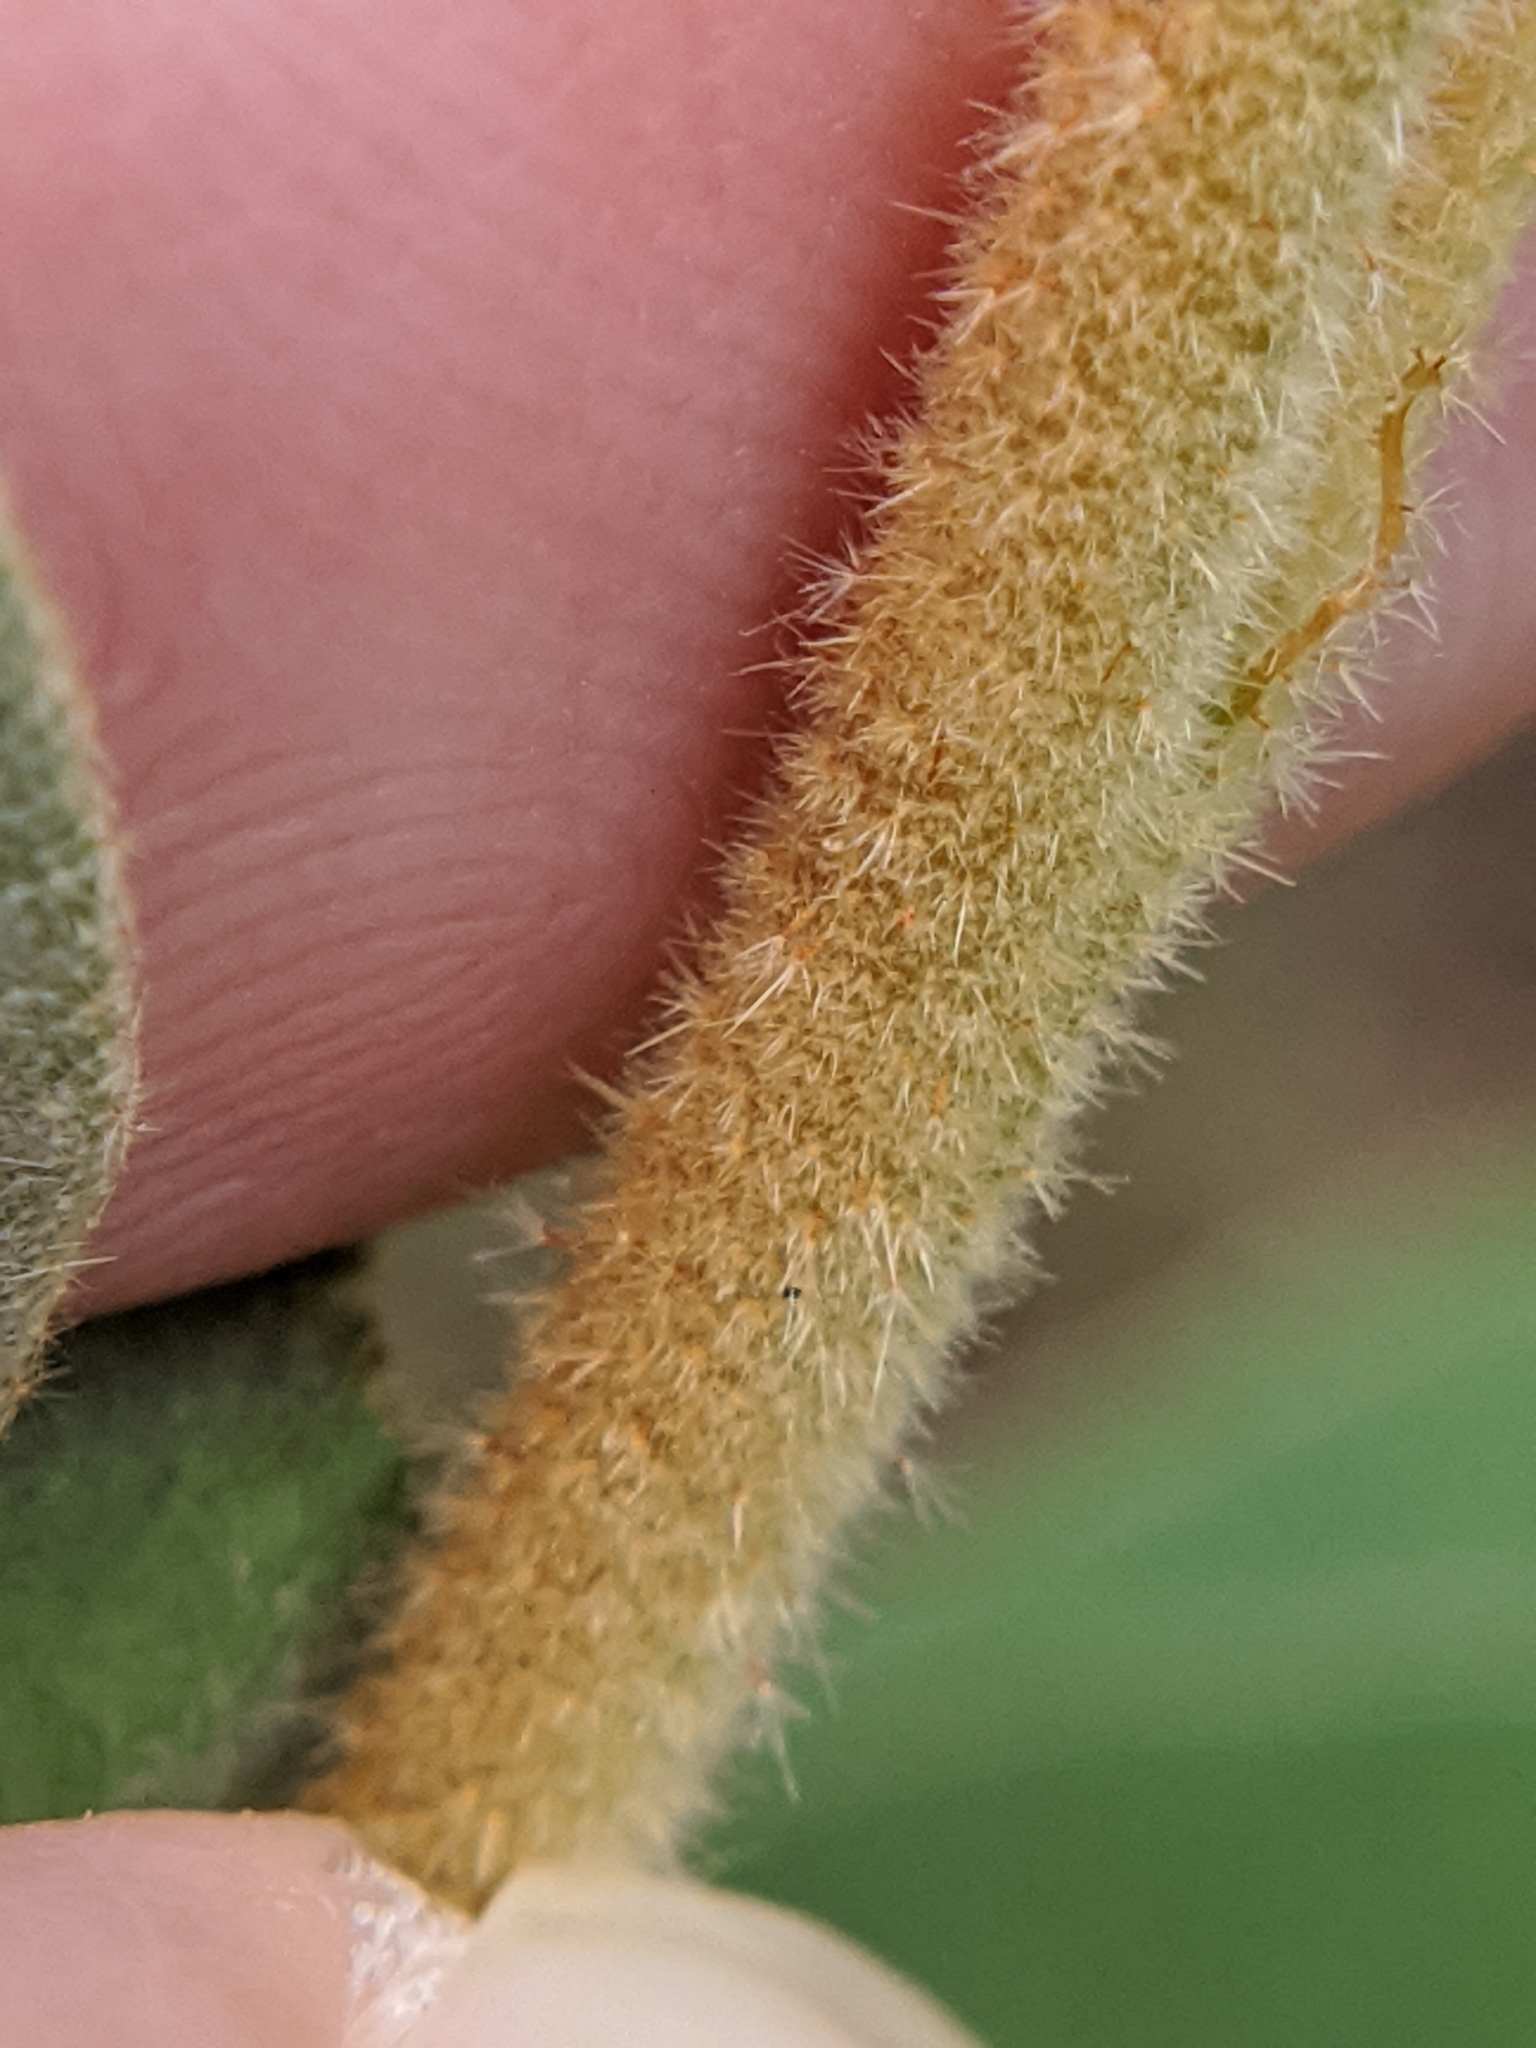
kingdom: Plantae
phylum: Tracheophyta
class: Magnoliopsida
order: Malpighiales
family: Euphorbiaceae
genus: Croton
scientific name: Croton lindheimeri
